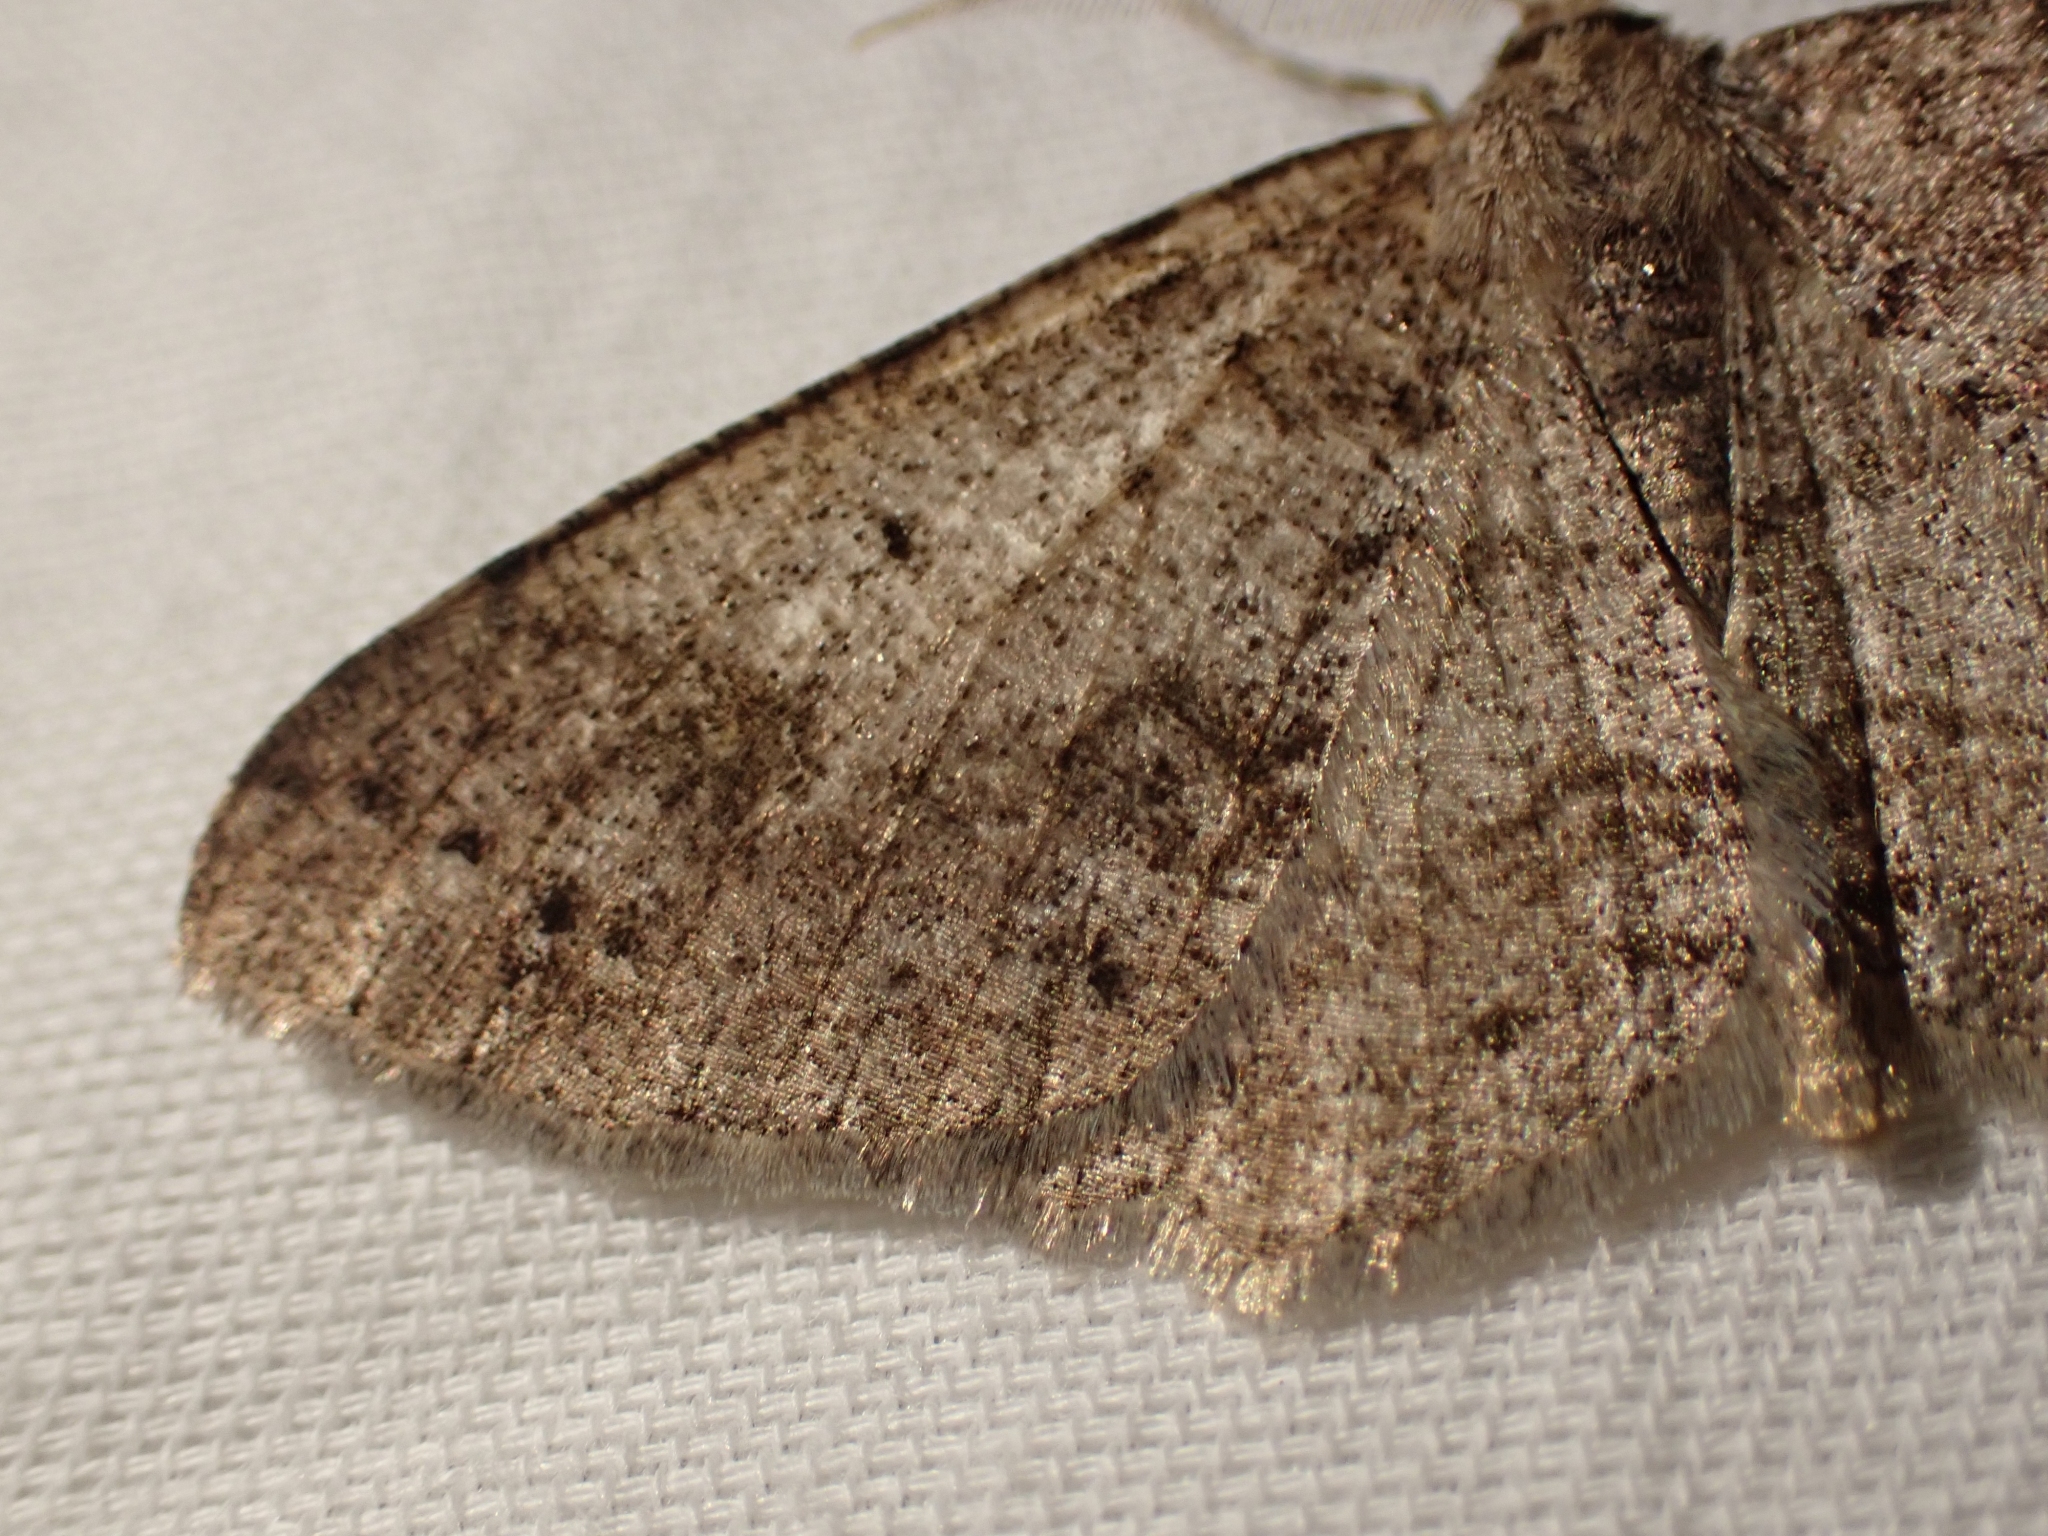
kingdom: Animalia
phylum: Arthropoda
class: Insecta
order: Lepidoptera
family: Geometridae
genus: Melanolophia
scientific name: Melanolophia imitata
